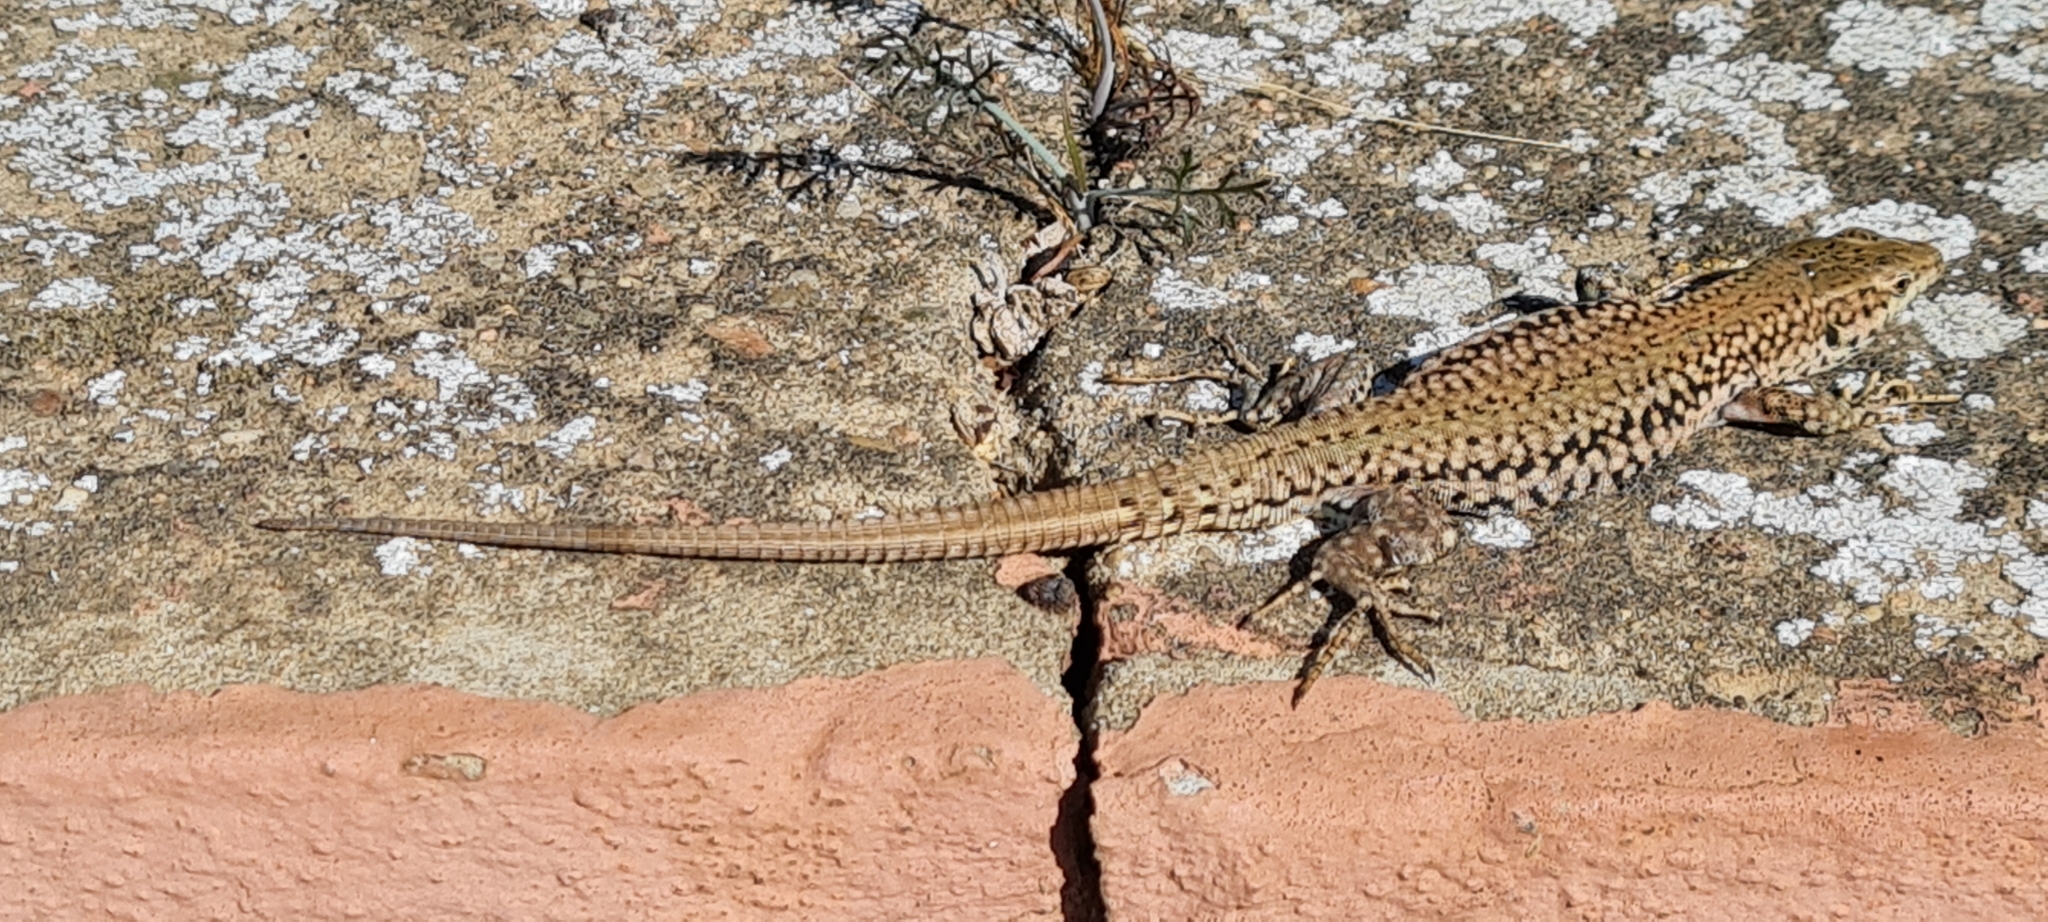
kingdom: Animalia
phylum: Chordata
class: Squamata
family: Lacertidae
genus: Podarcis
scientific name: Podarcis liolepis
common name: Catalonian wall lizard
